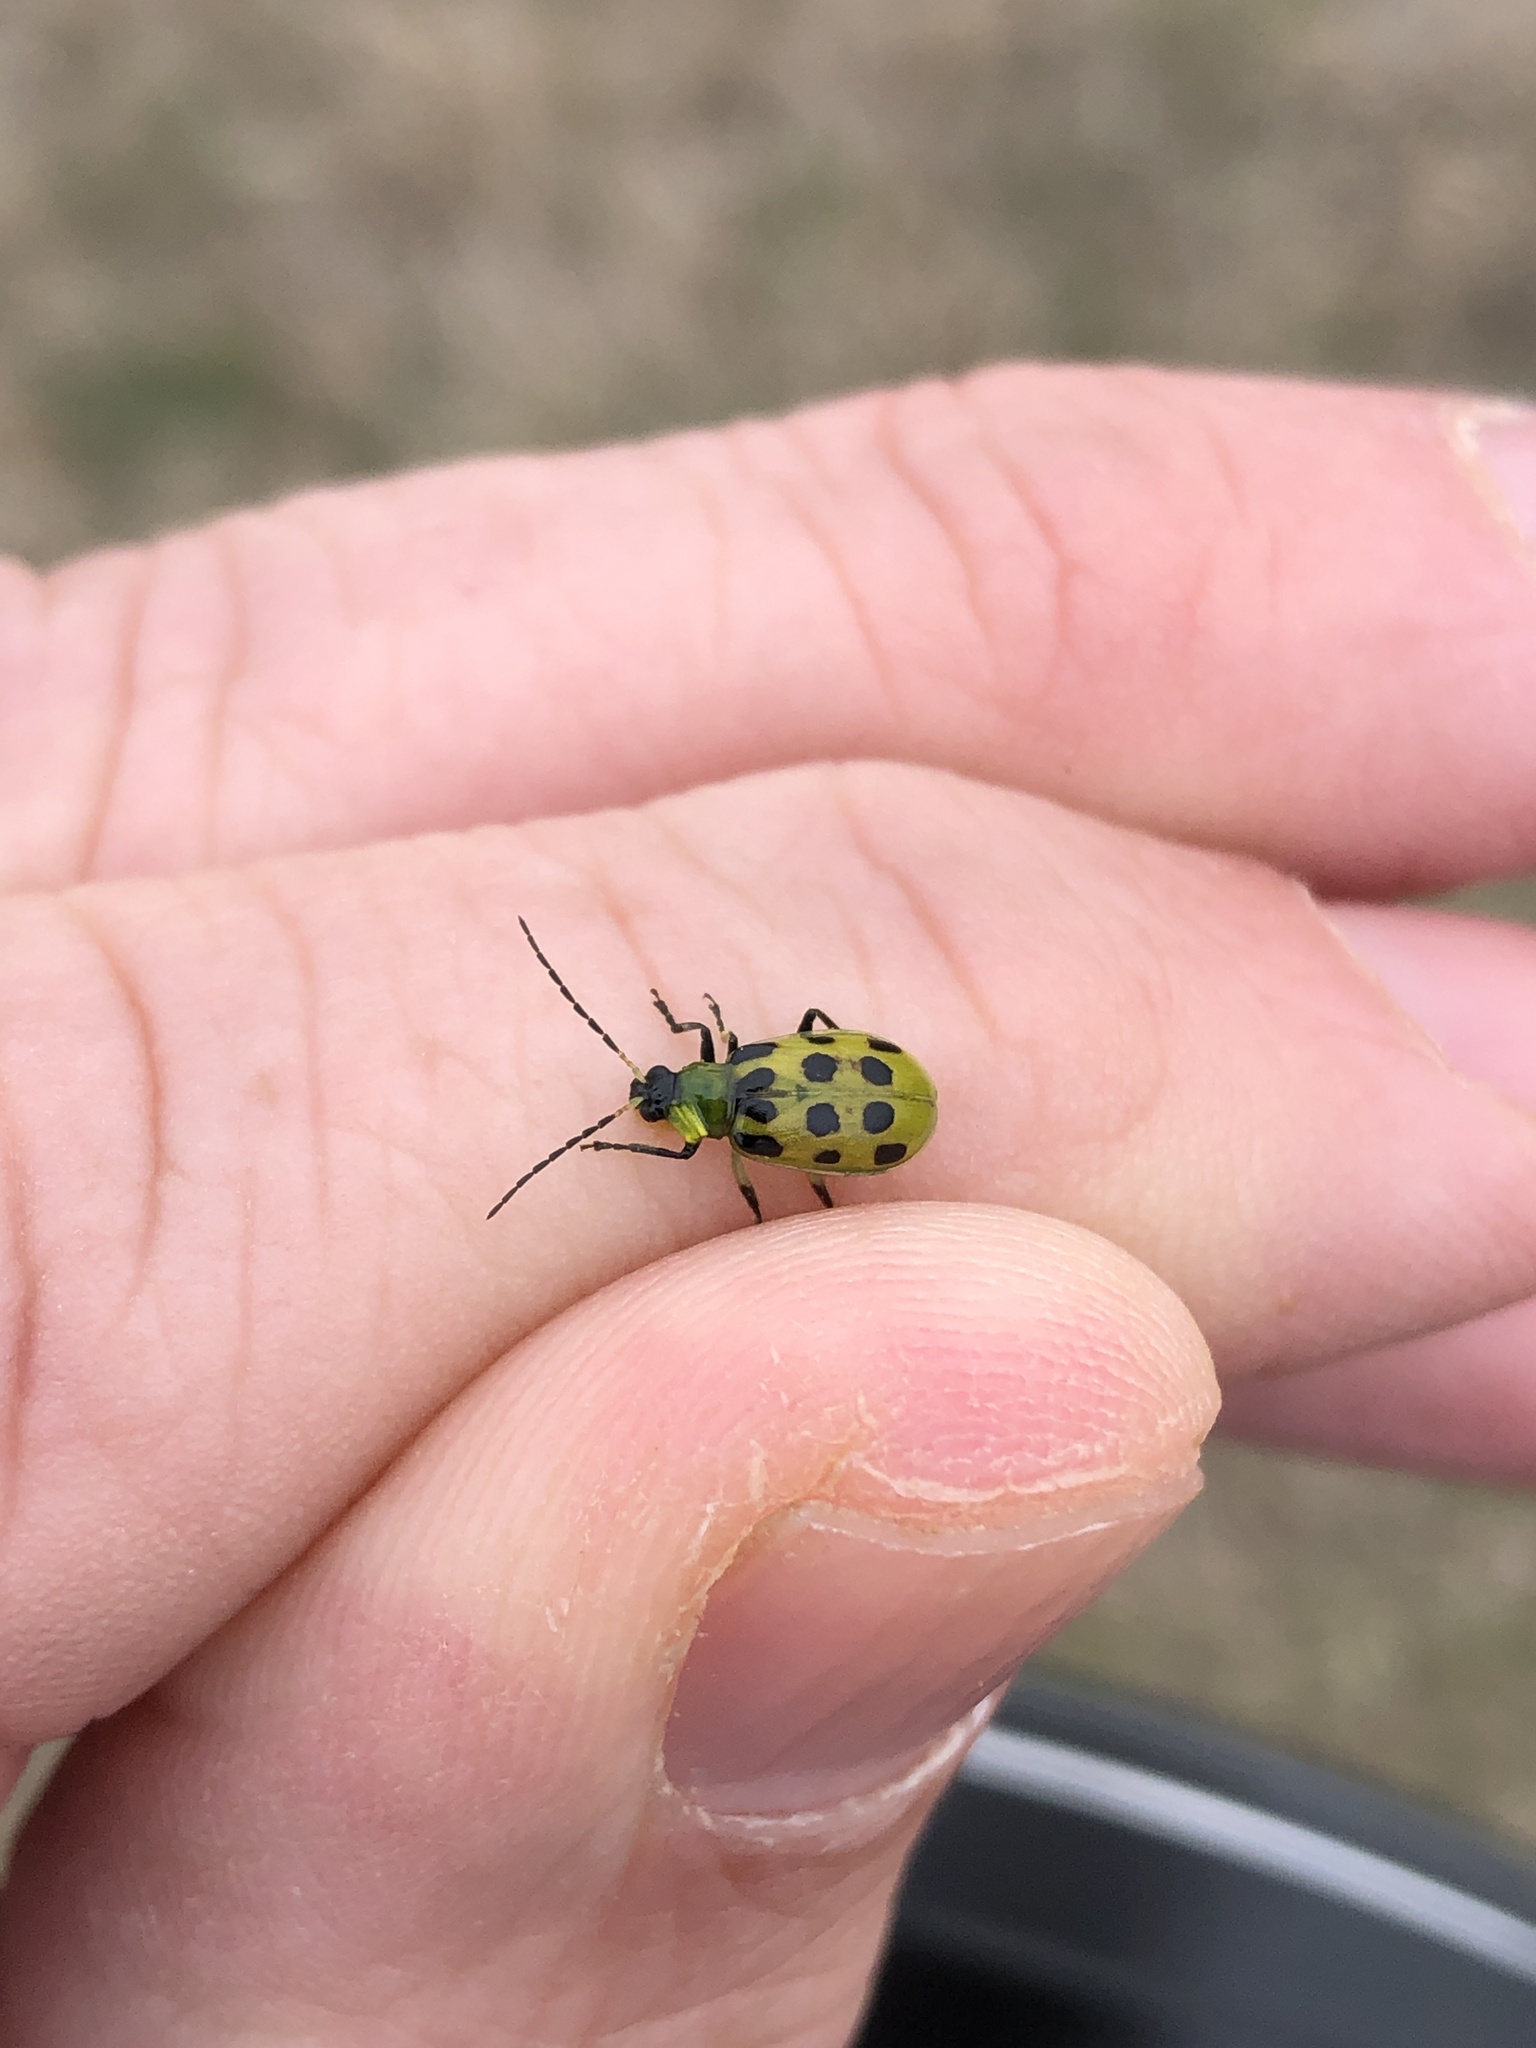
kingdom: Animalia
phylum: Arthropoda
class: Insecta
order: Coleoptera
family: Chrysomelidae
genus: Diabrotica
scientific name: Diabrotica undecimpunctata
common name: Spotted cucumber beetle
